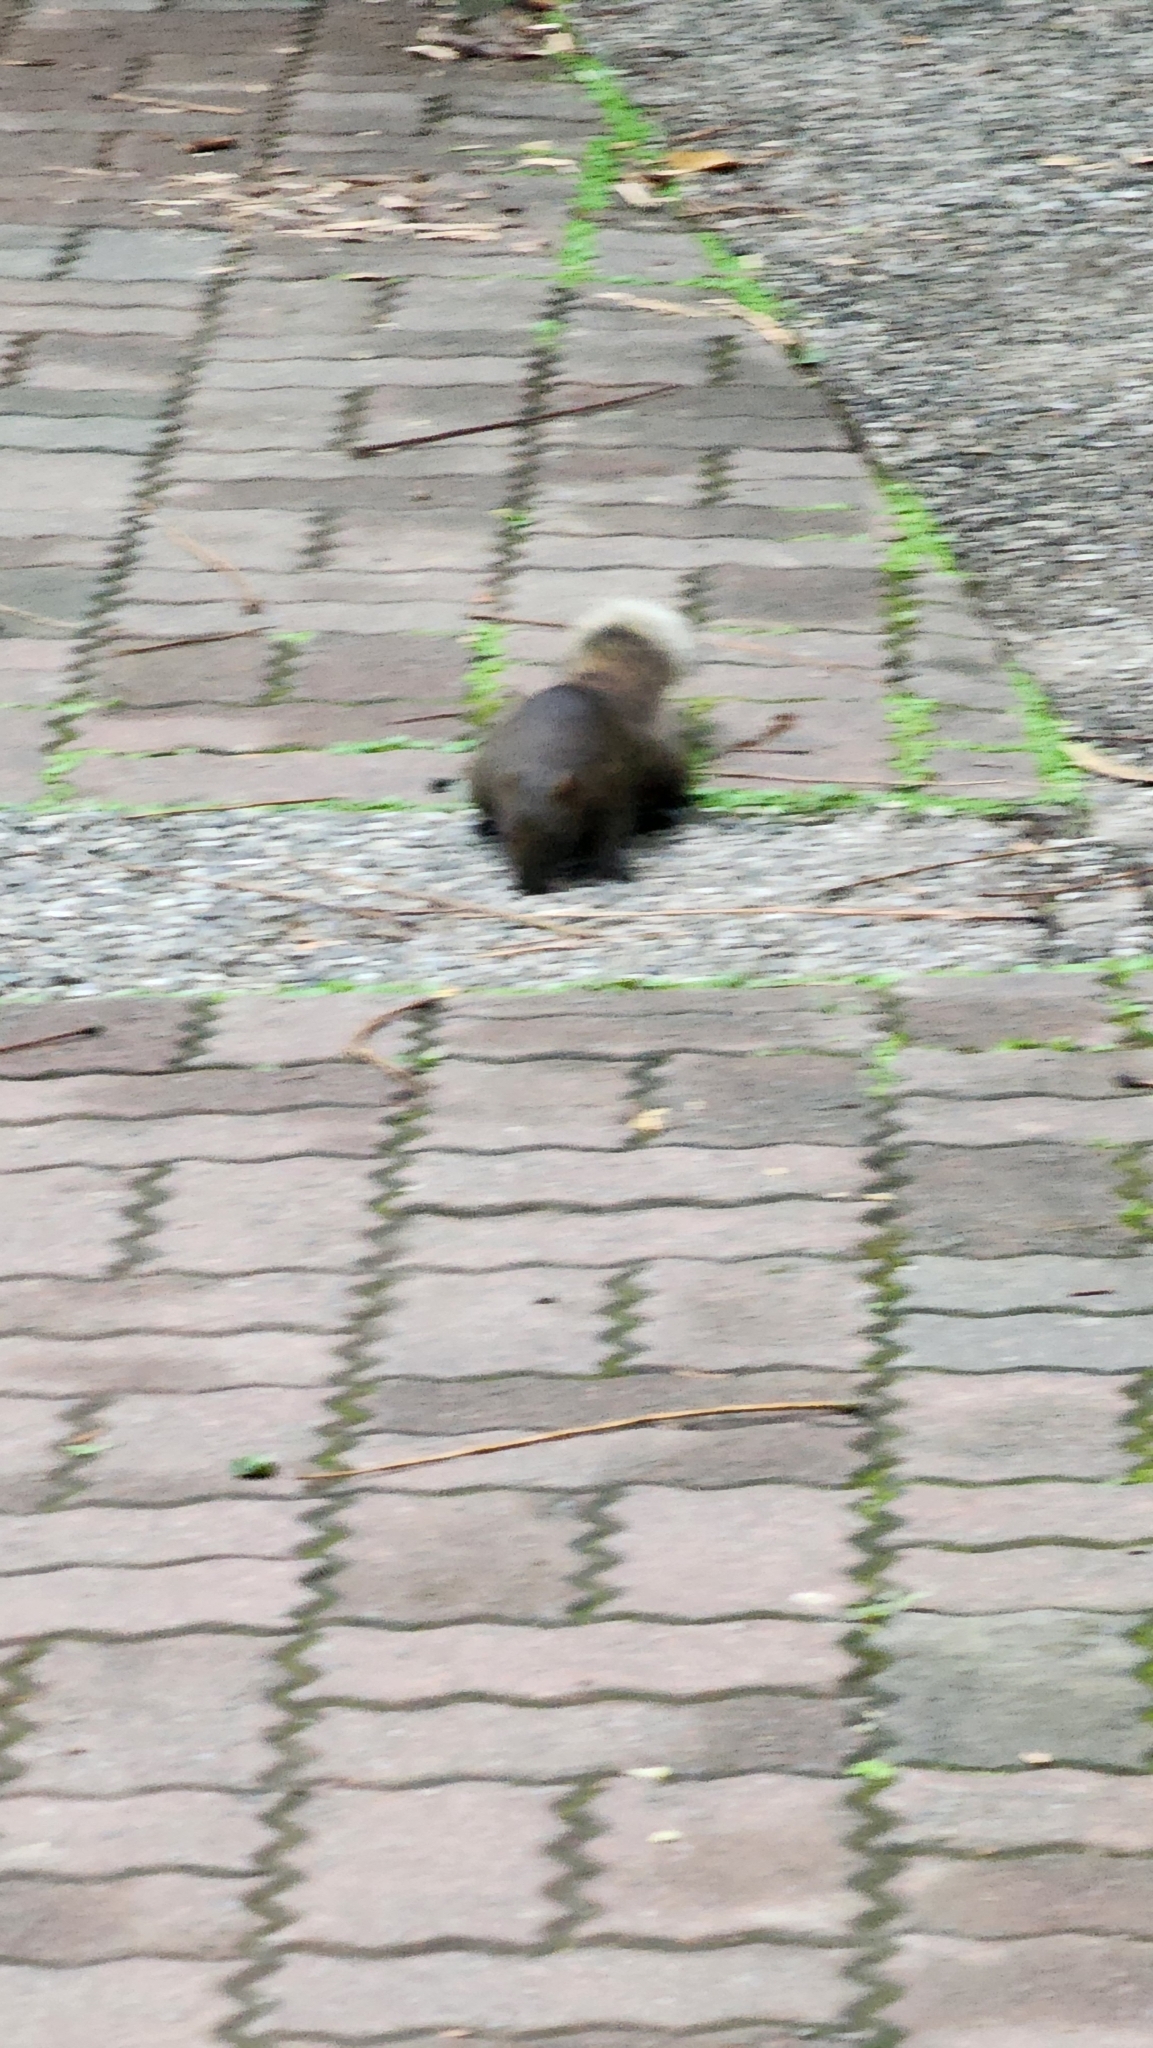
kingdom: Animalia
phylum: Chordata
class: Mammalia
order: Rodentia
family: Sciuridae
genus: Callosciurus
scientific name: Callosciurus erythraeus
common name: Pallas's squirrel
